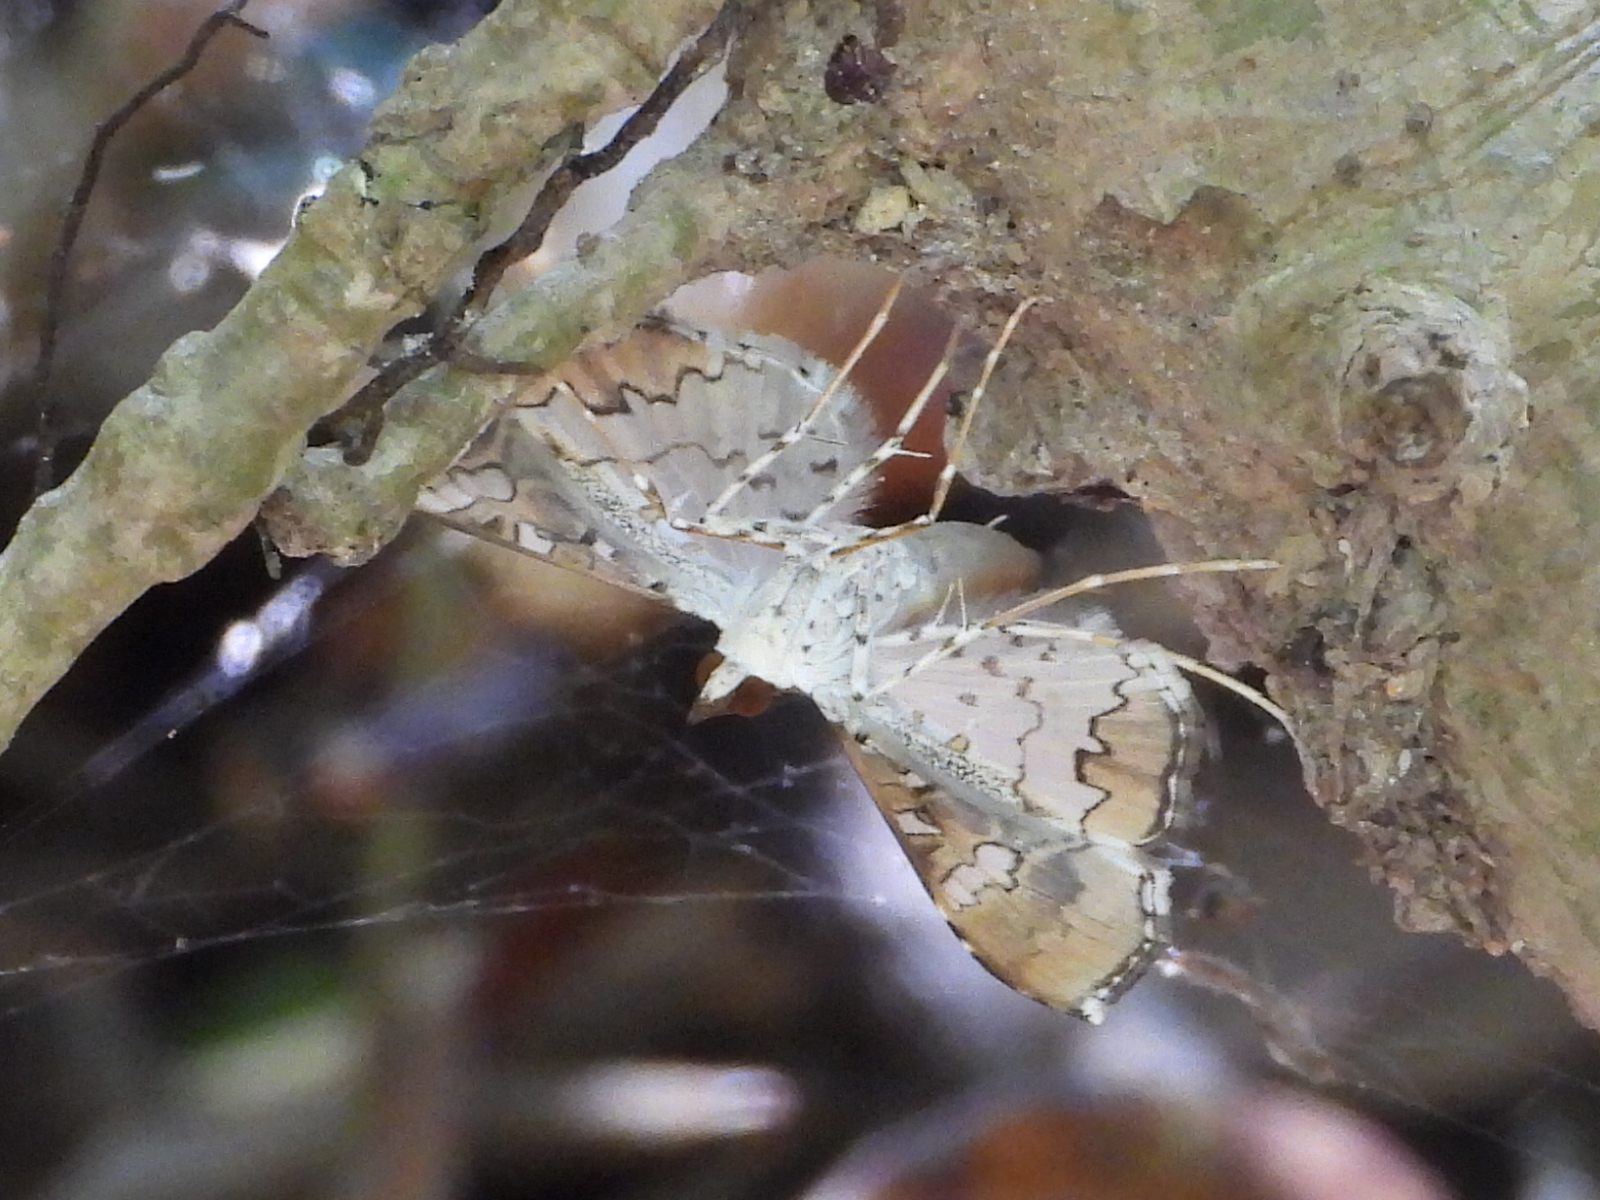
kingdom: Animalia
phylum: Arthropoda
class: Insecta
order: Lepidoptera
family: Crambidae
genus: Maruca
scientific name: Maruca vitrata
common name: Maruca pod borer
